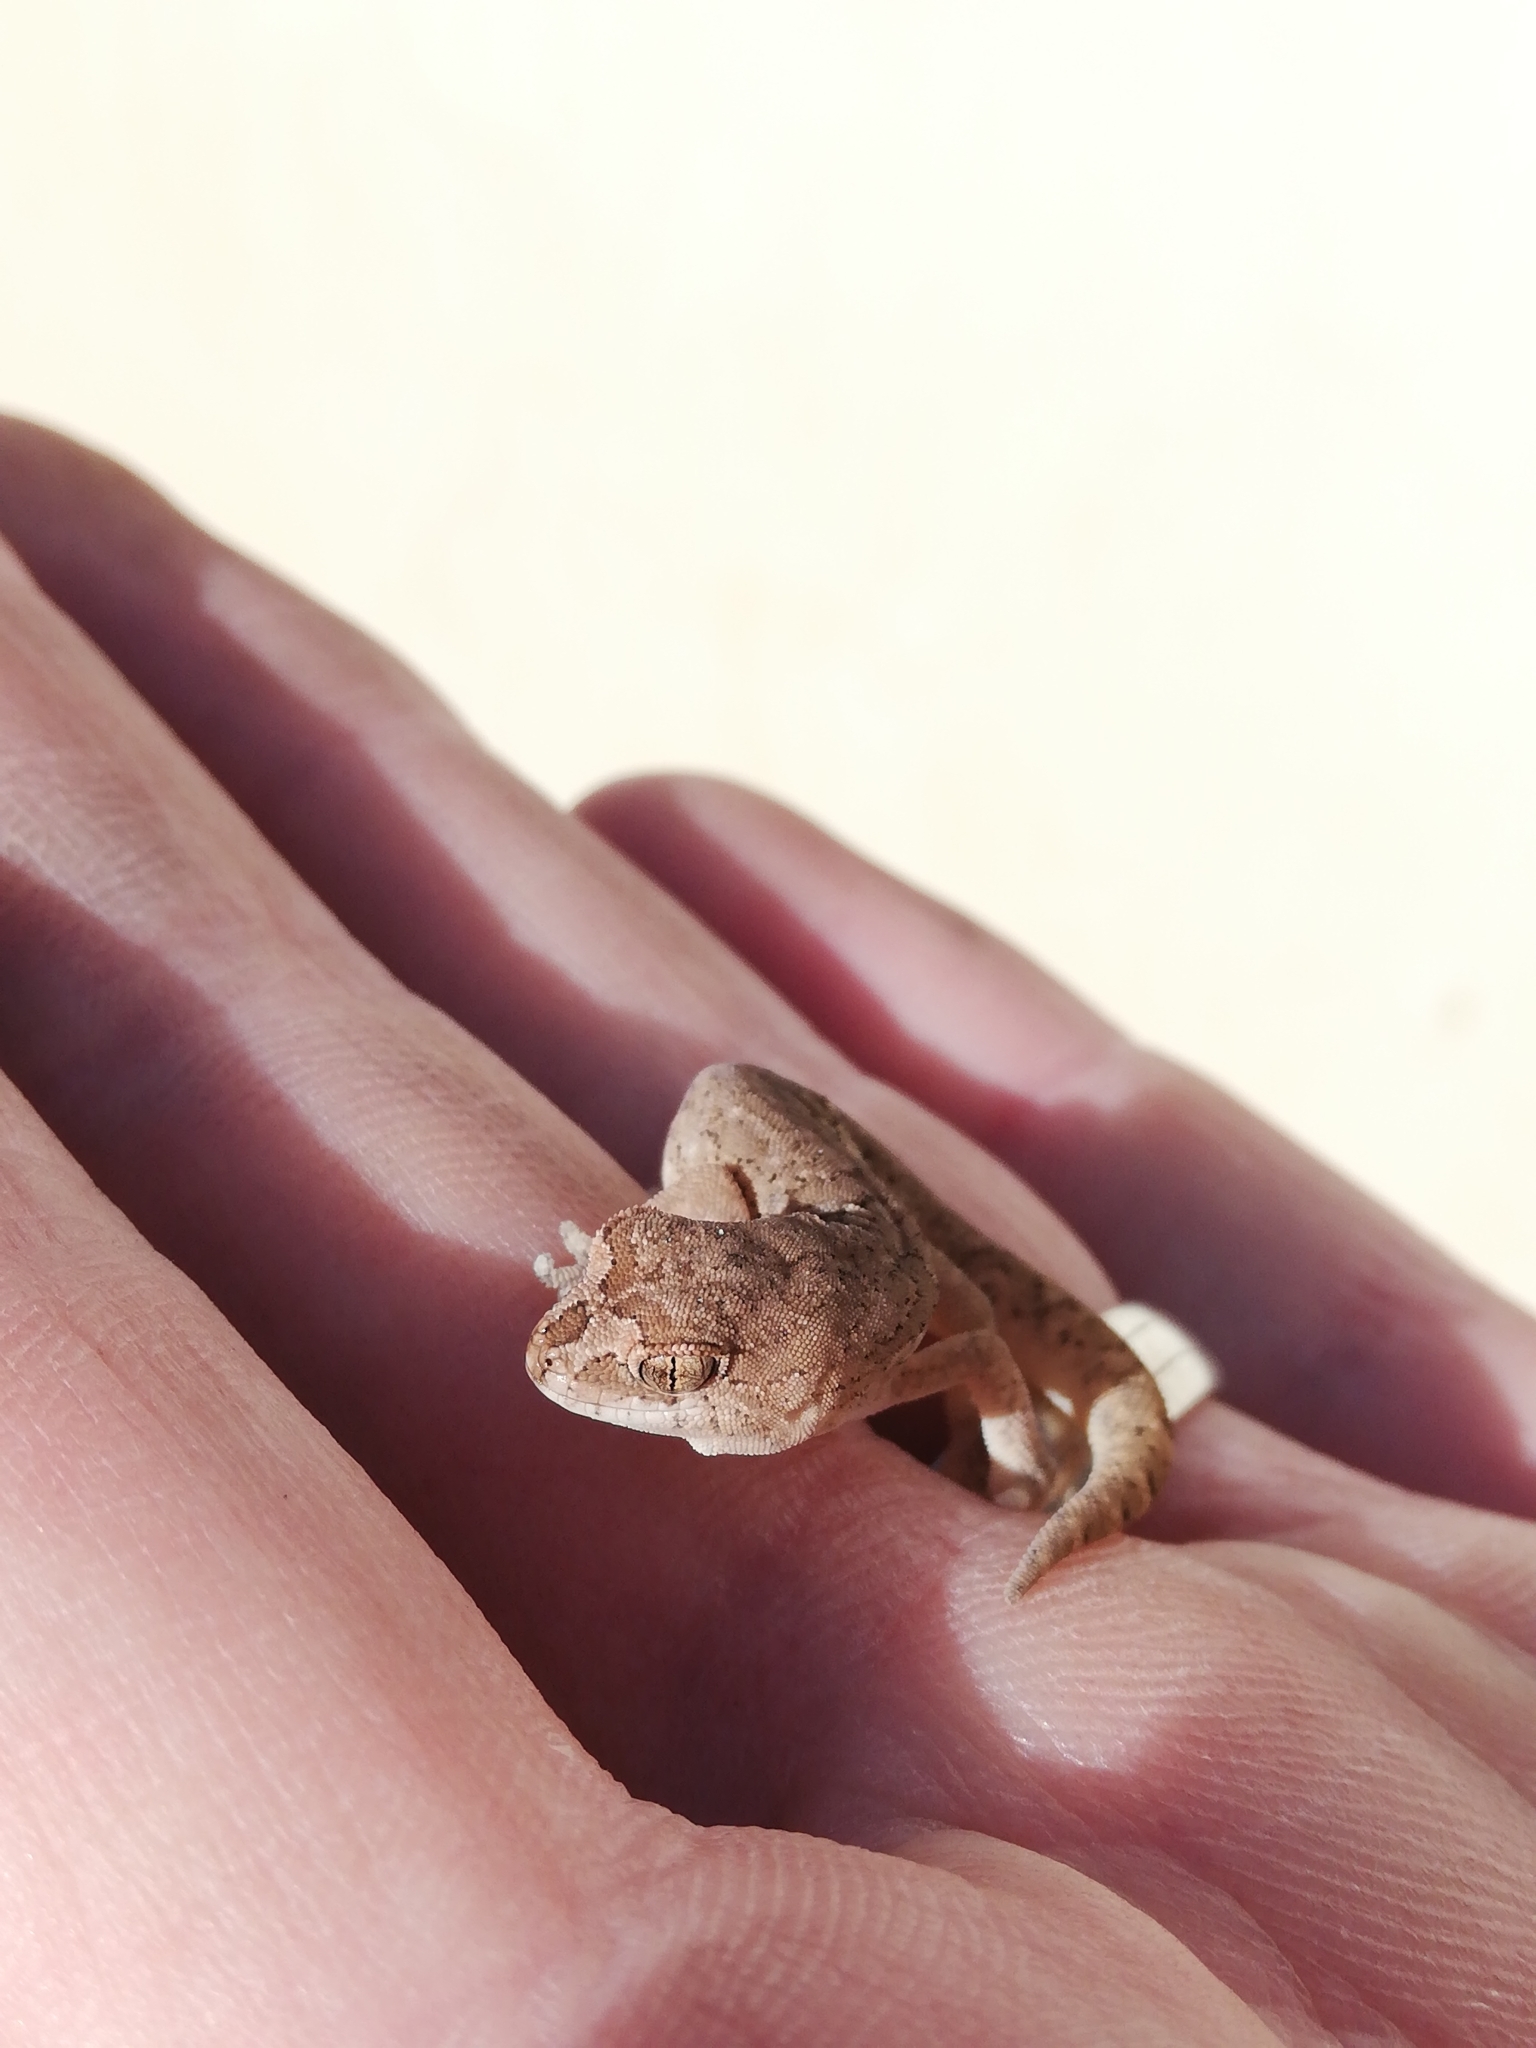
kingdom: Animalia
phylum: Chordata
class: Squamata
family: Gekkonidae
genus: Pachydactylus
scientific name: Pachydactylus mariquensis
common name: Common banded gecko
